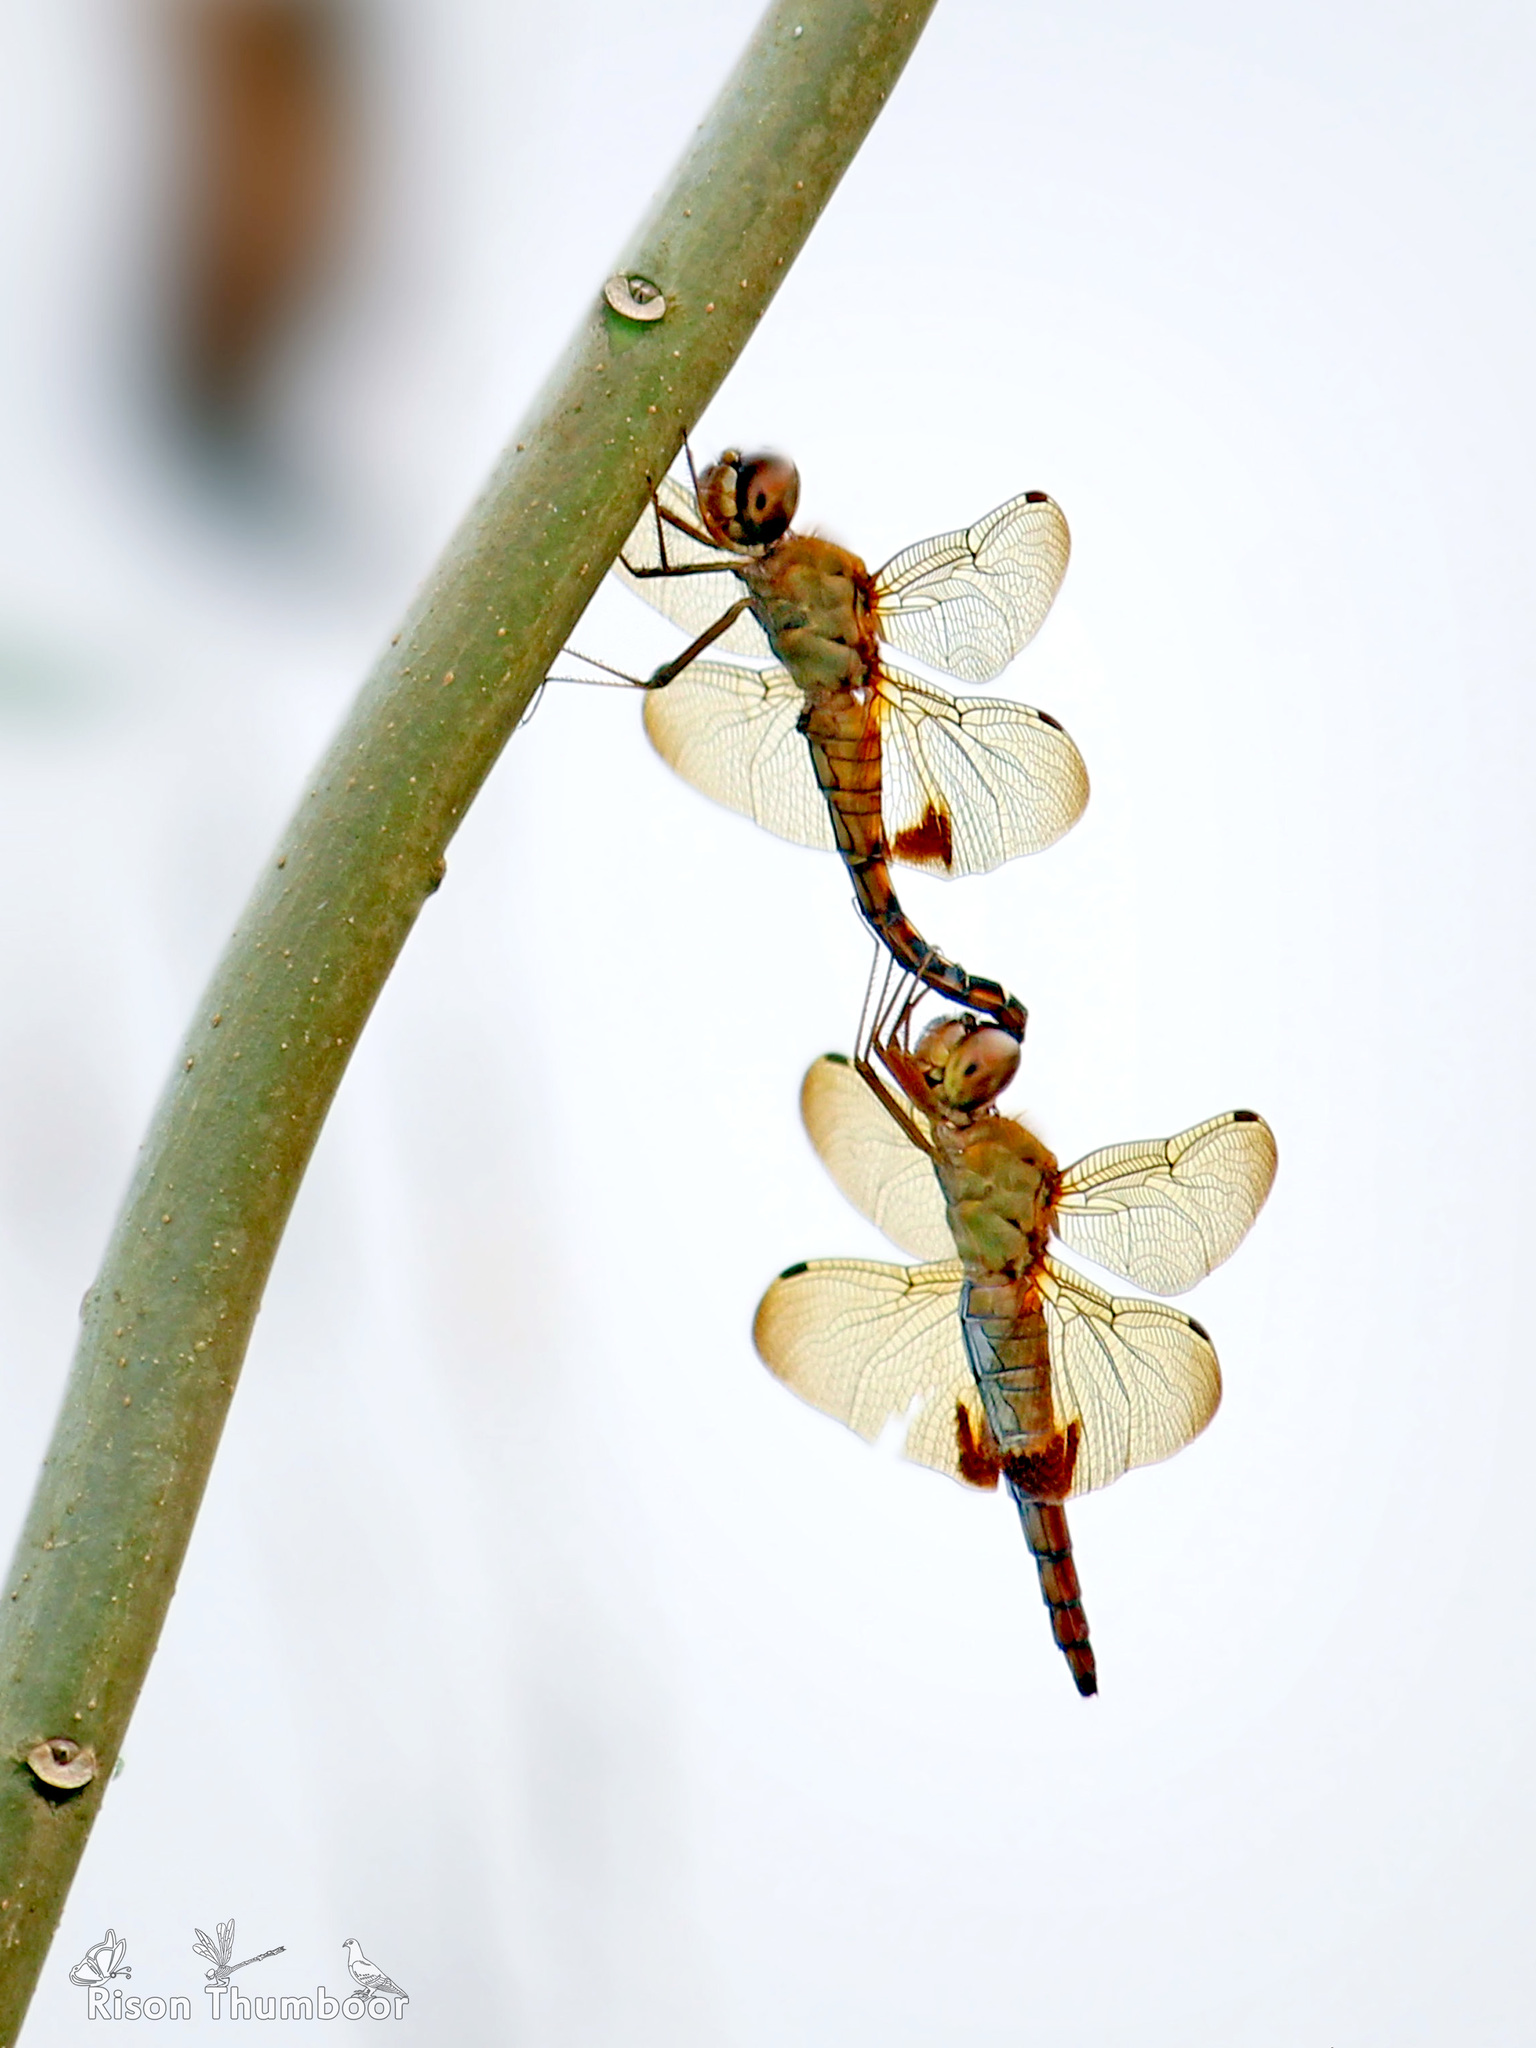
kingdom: Animalia
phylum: Arthropoda
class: Insecta
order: Odonata
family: Libellulidae
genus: Hydrobasileus
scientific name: Hydrobasileus croceus
